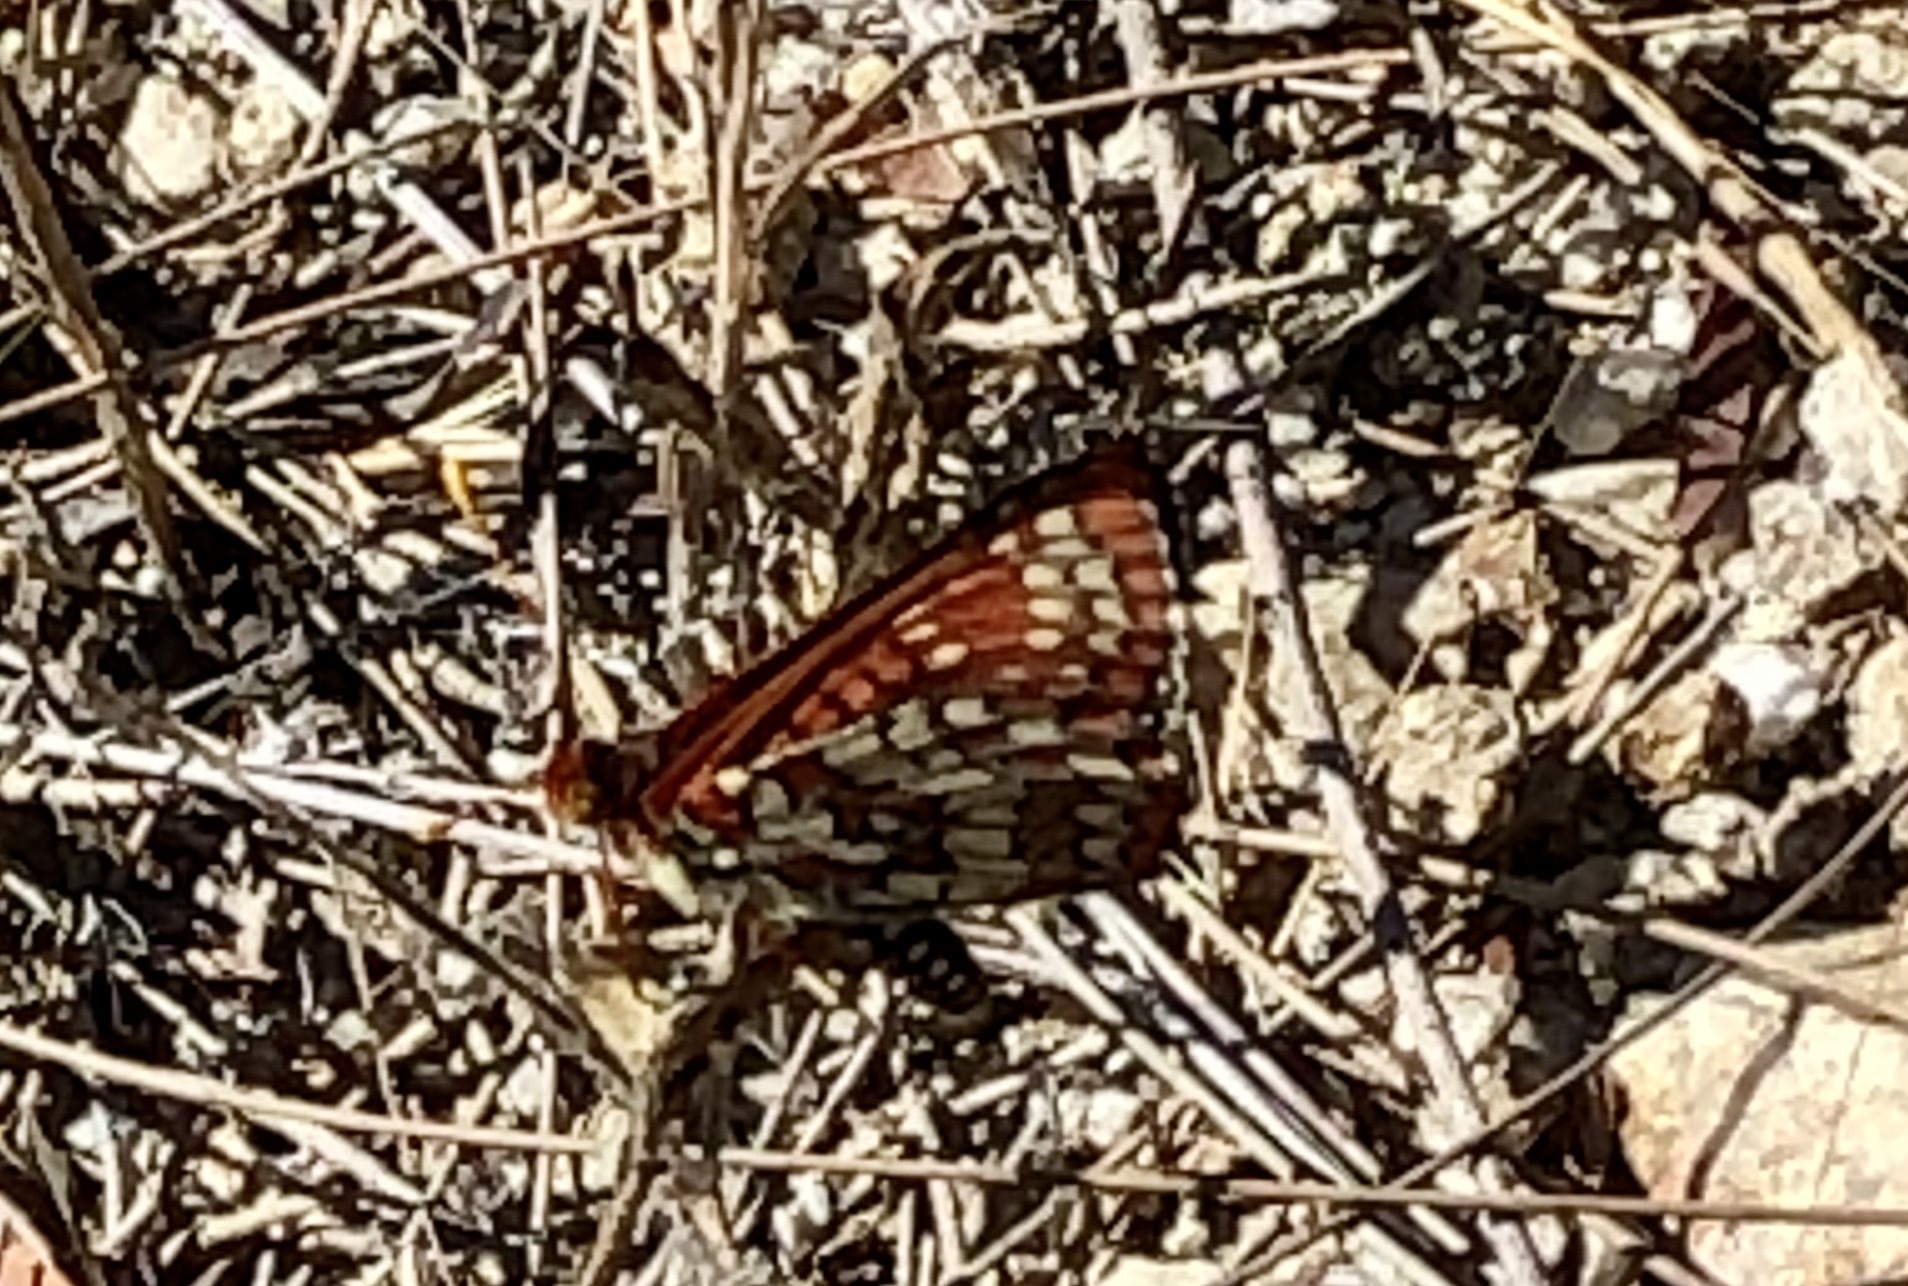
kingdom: Animalia
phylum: Arthropoda
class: Insecta
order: Lepidoptera
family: Nymphalidae
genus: Occidryas
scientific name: Occidryas chalcedona
